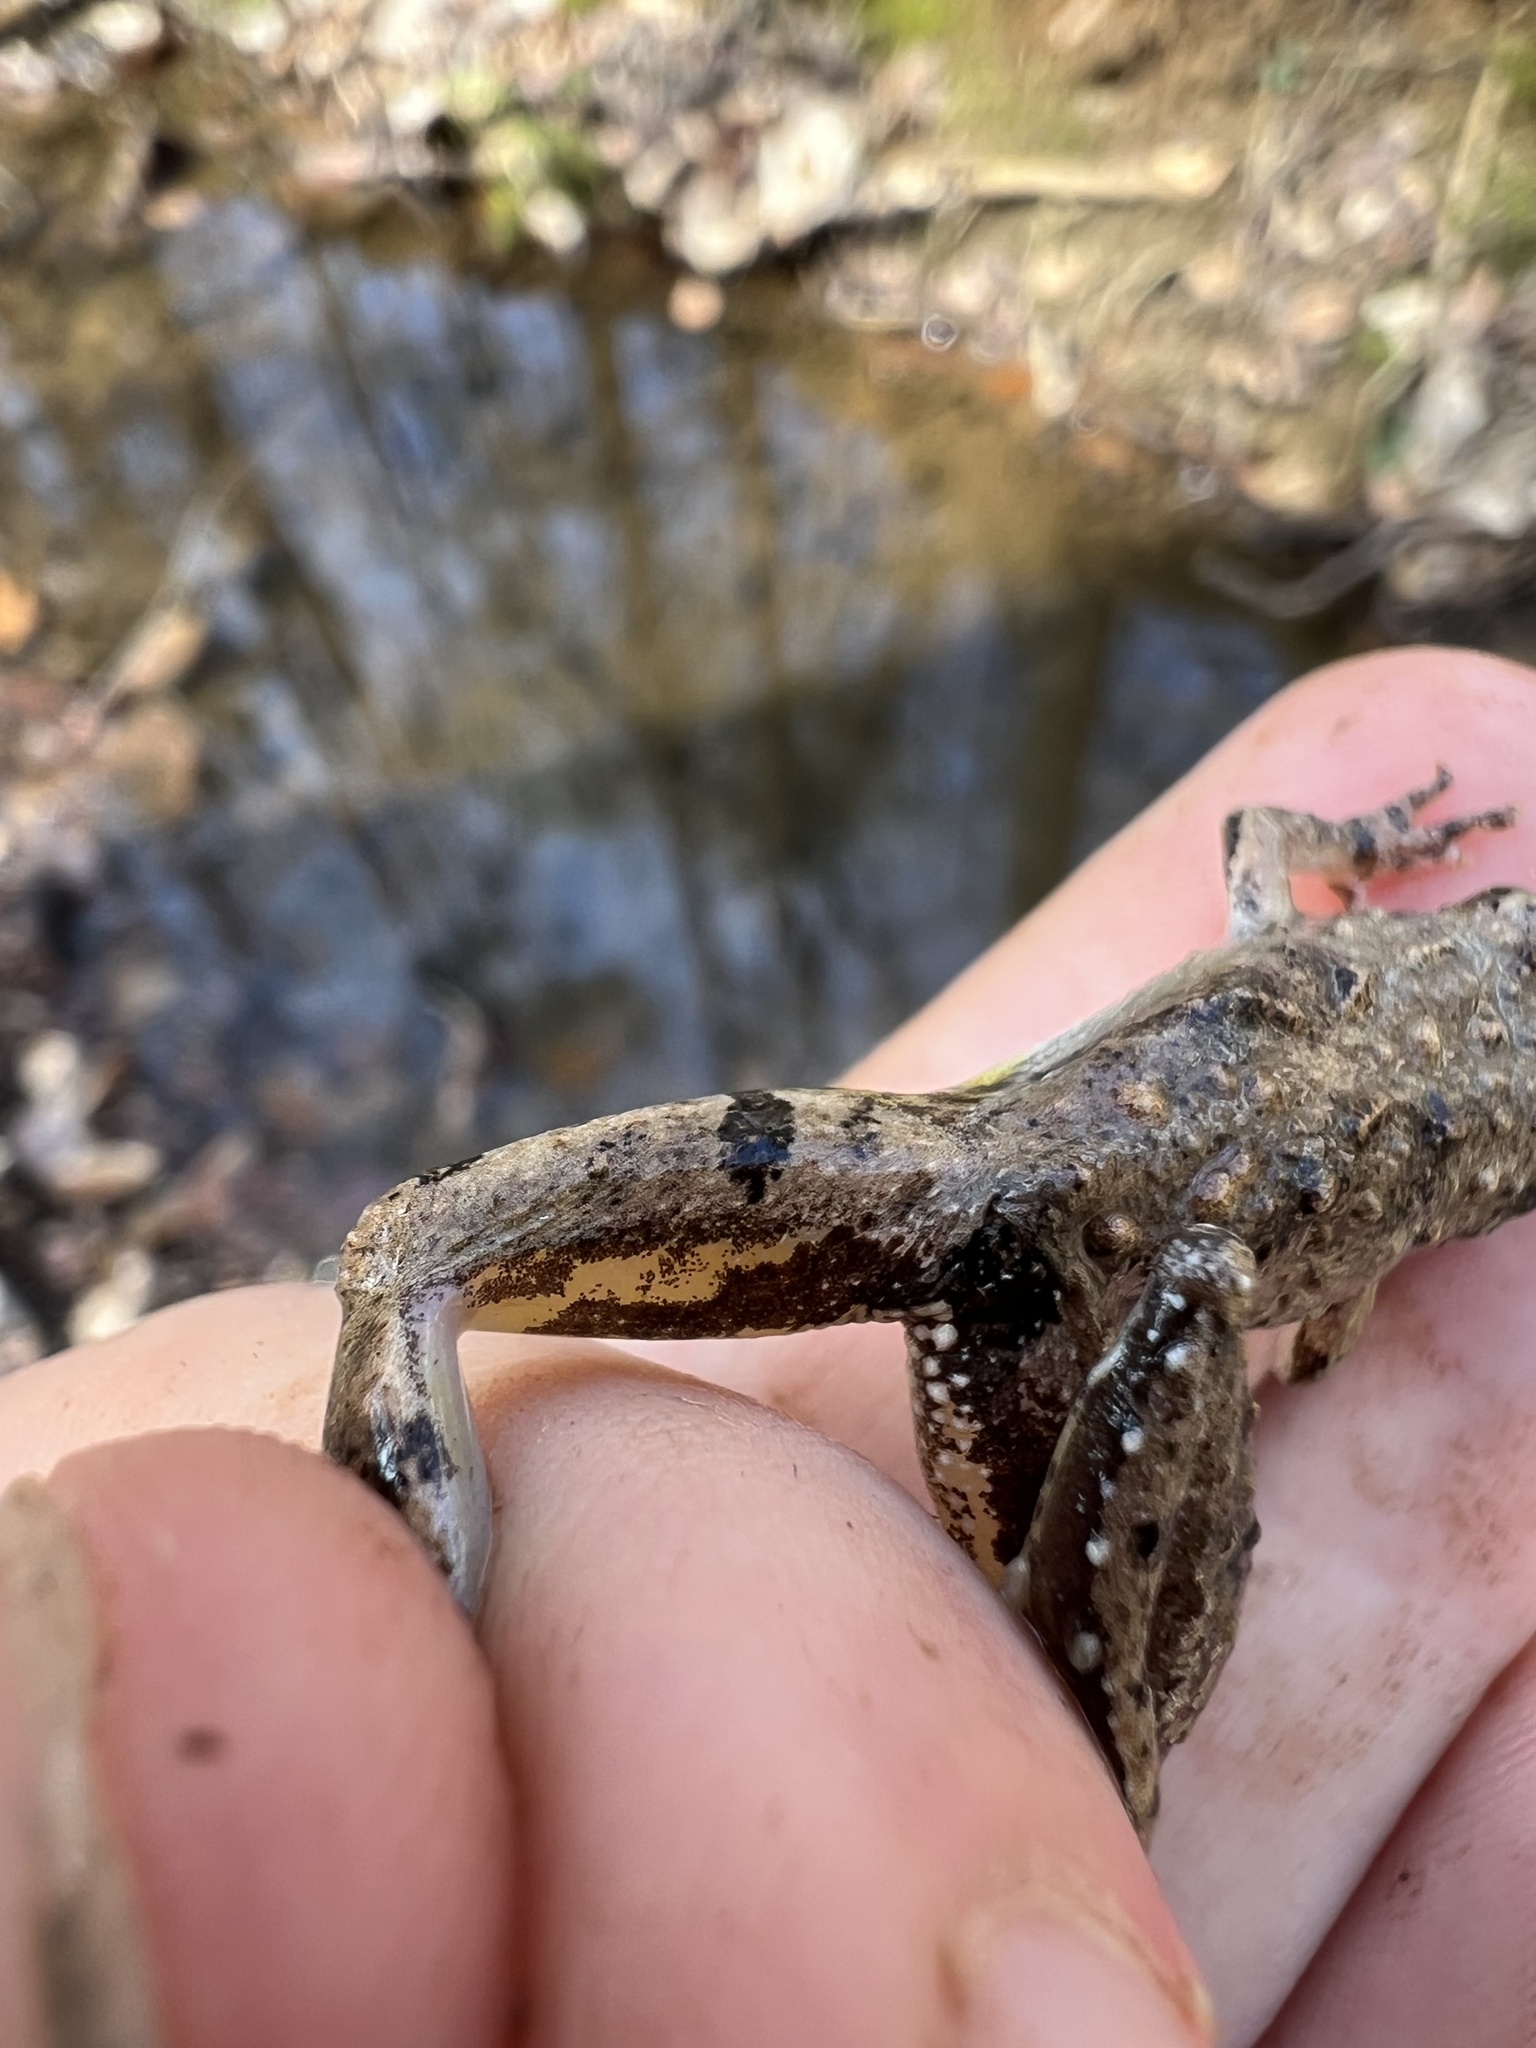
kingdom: Animalia
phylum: Chordata
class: Amphibia
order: Anura
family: Hylidae
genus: Acris
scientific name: Acris crepitans
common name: Northern cricket frog
